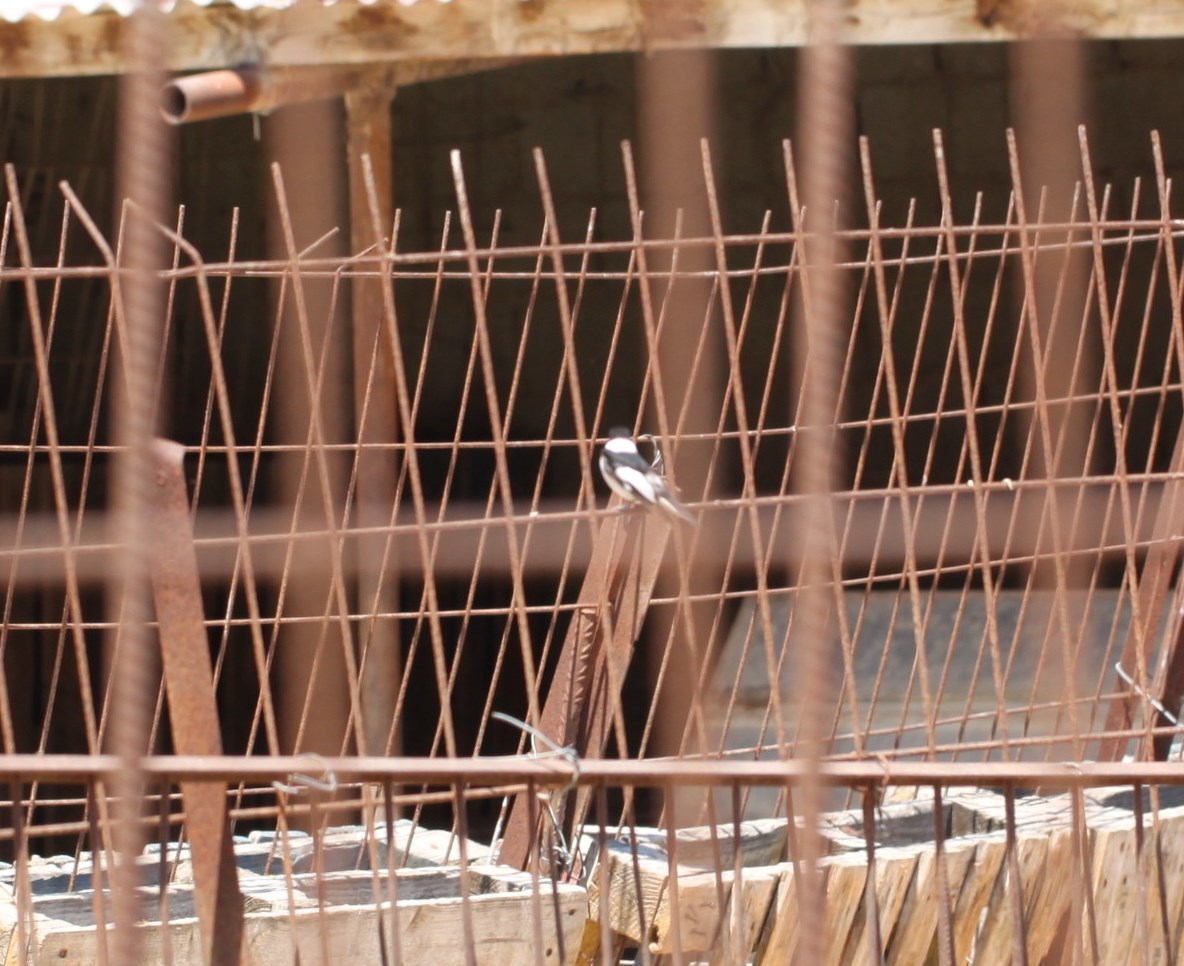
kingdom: Animalia
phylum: Chordata
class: Aves
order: Passeriformes
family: Muscicapidae
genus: Ficedula
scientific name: Ficedula albicollis
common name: Collared flycatcher
